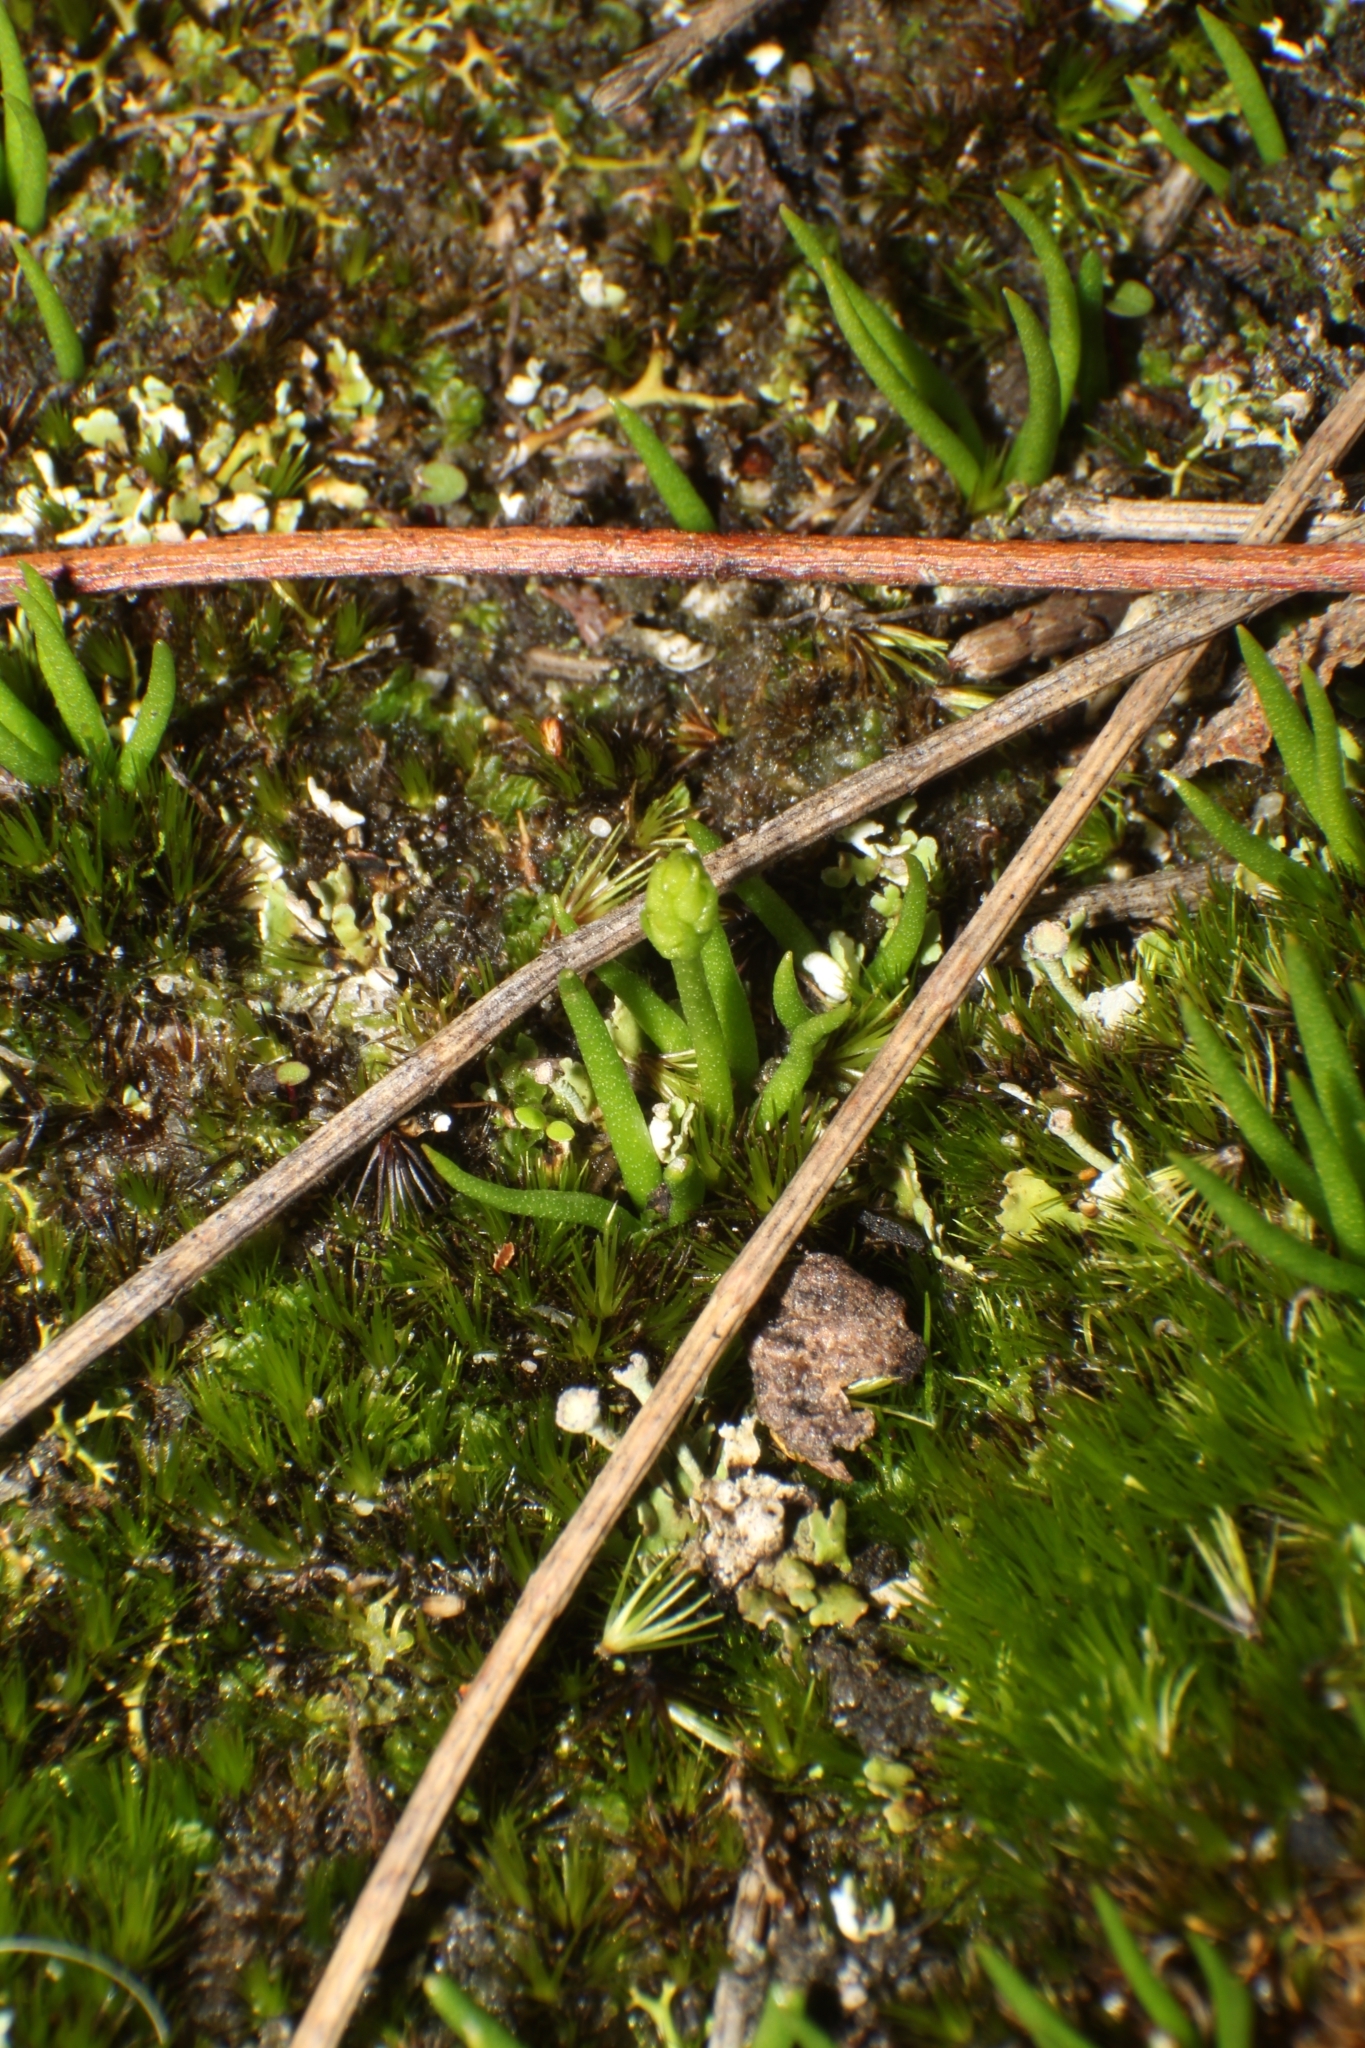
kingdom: Plantae
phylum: Tracheophyta
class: Lycopodiopsida
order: Lycopodiales
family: Lycopodiaceae
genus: Phylloglossum
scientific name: Phylloglossum drummondii
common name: Pigmy-club-moss
